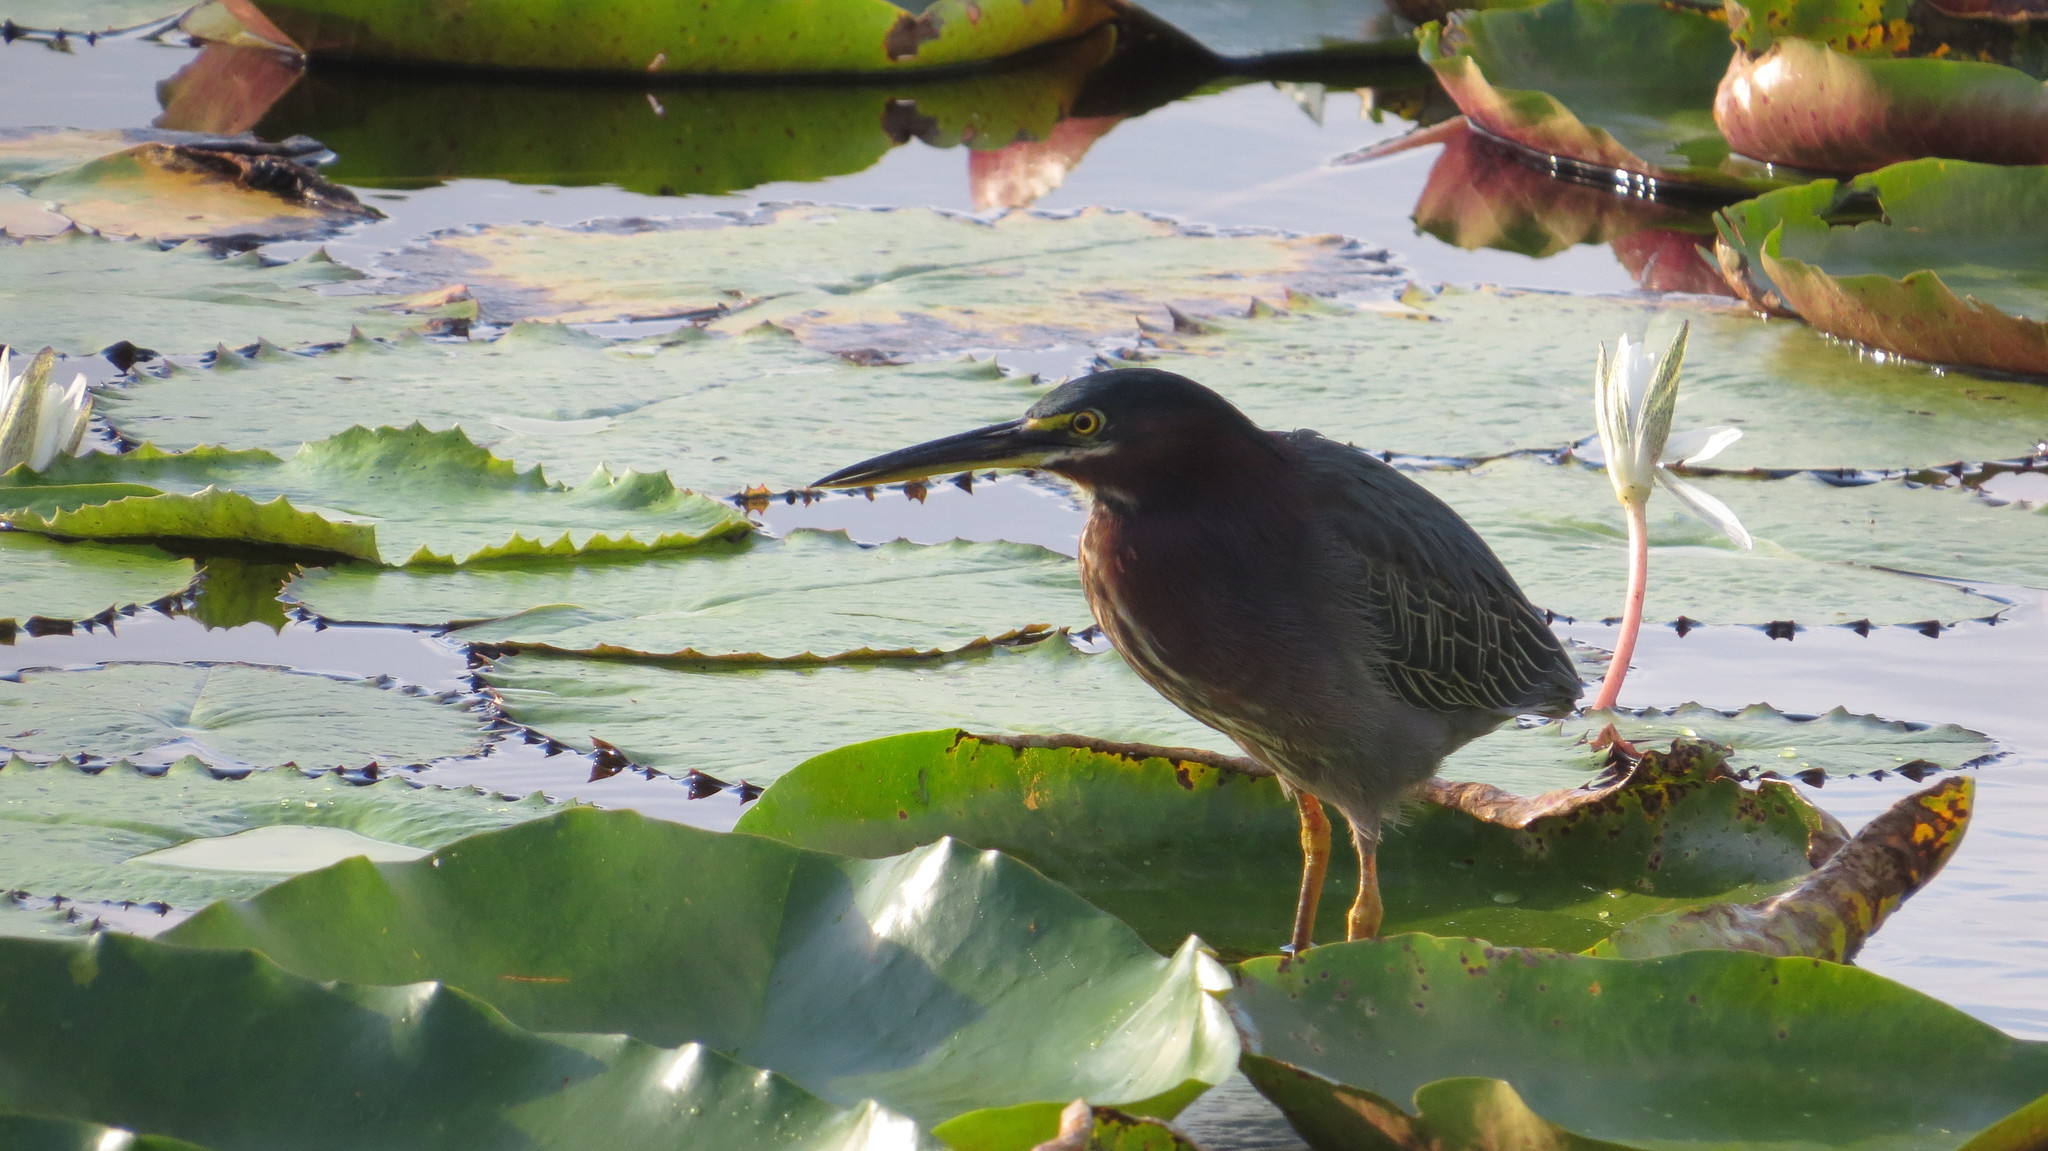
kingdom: Animalia
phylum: Chordata
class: Aves
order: Pelecaniformes
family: Ardeidae
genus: Butorides
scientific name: Butorides virescens
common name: Green heron
